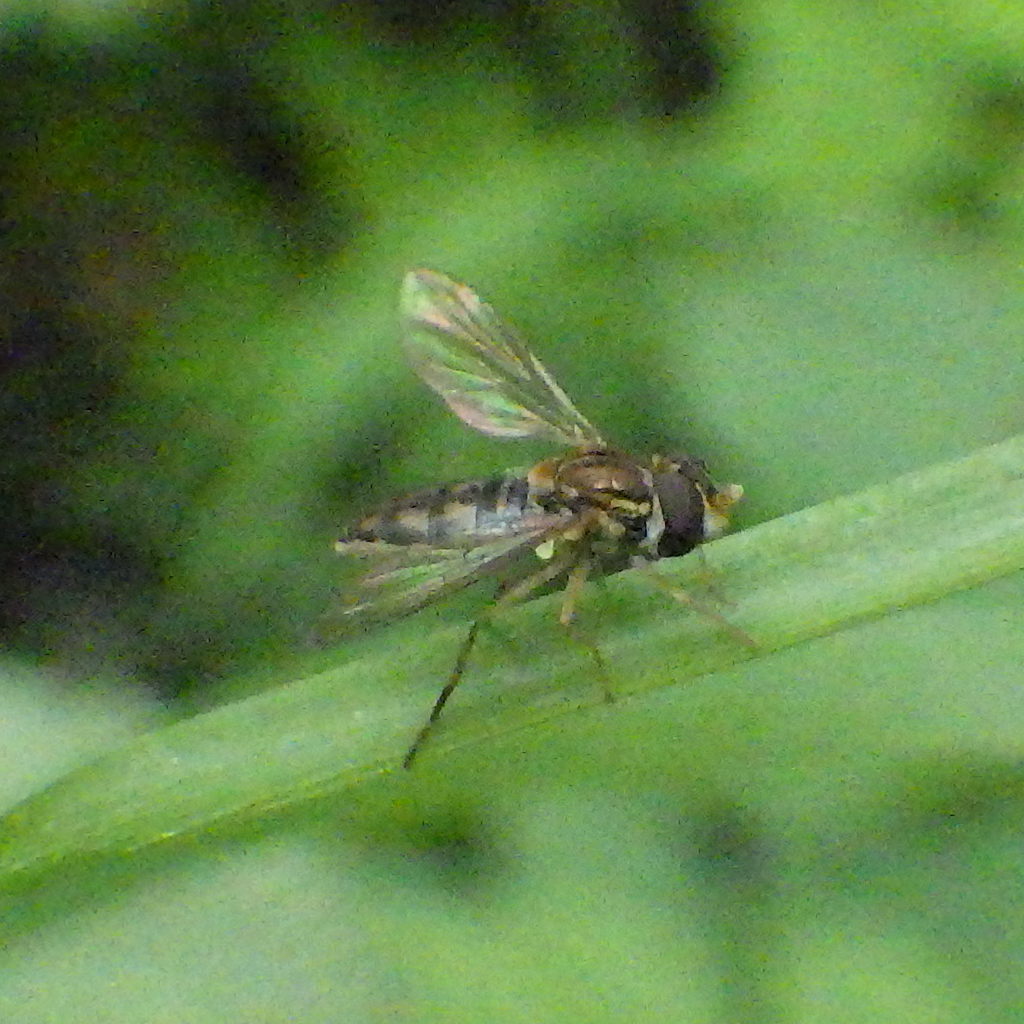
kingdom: Animalia
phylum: Arthropoda
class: Insecta
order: Diptera
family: Syrphidae
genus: Toxomerus
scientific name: Toxomerus marginatus
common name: Syrphid fly
